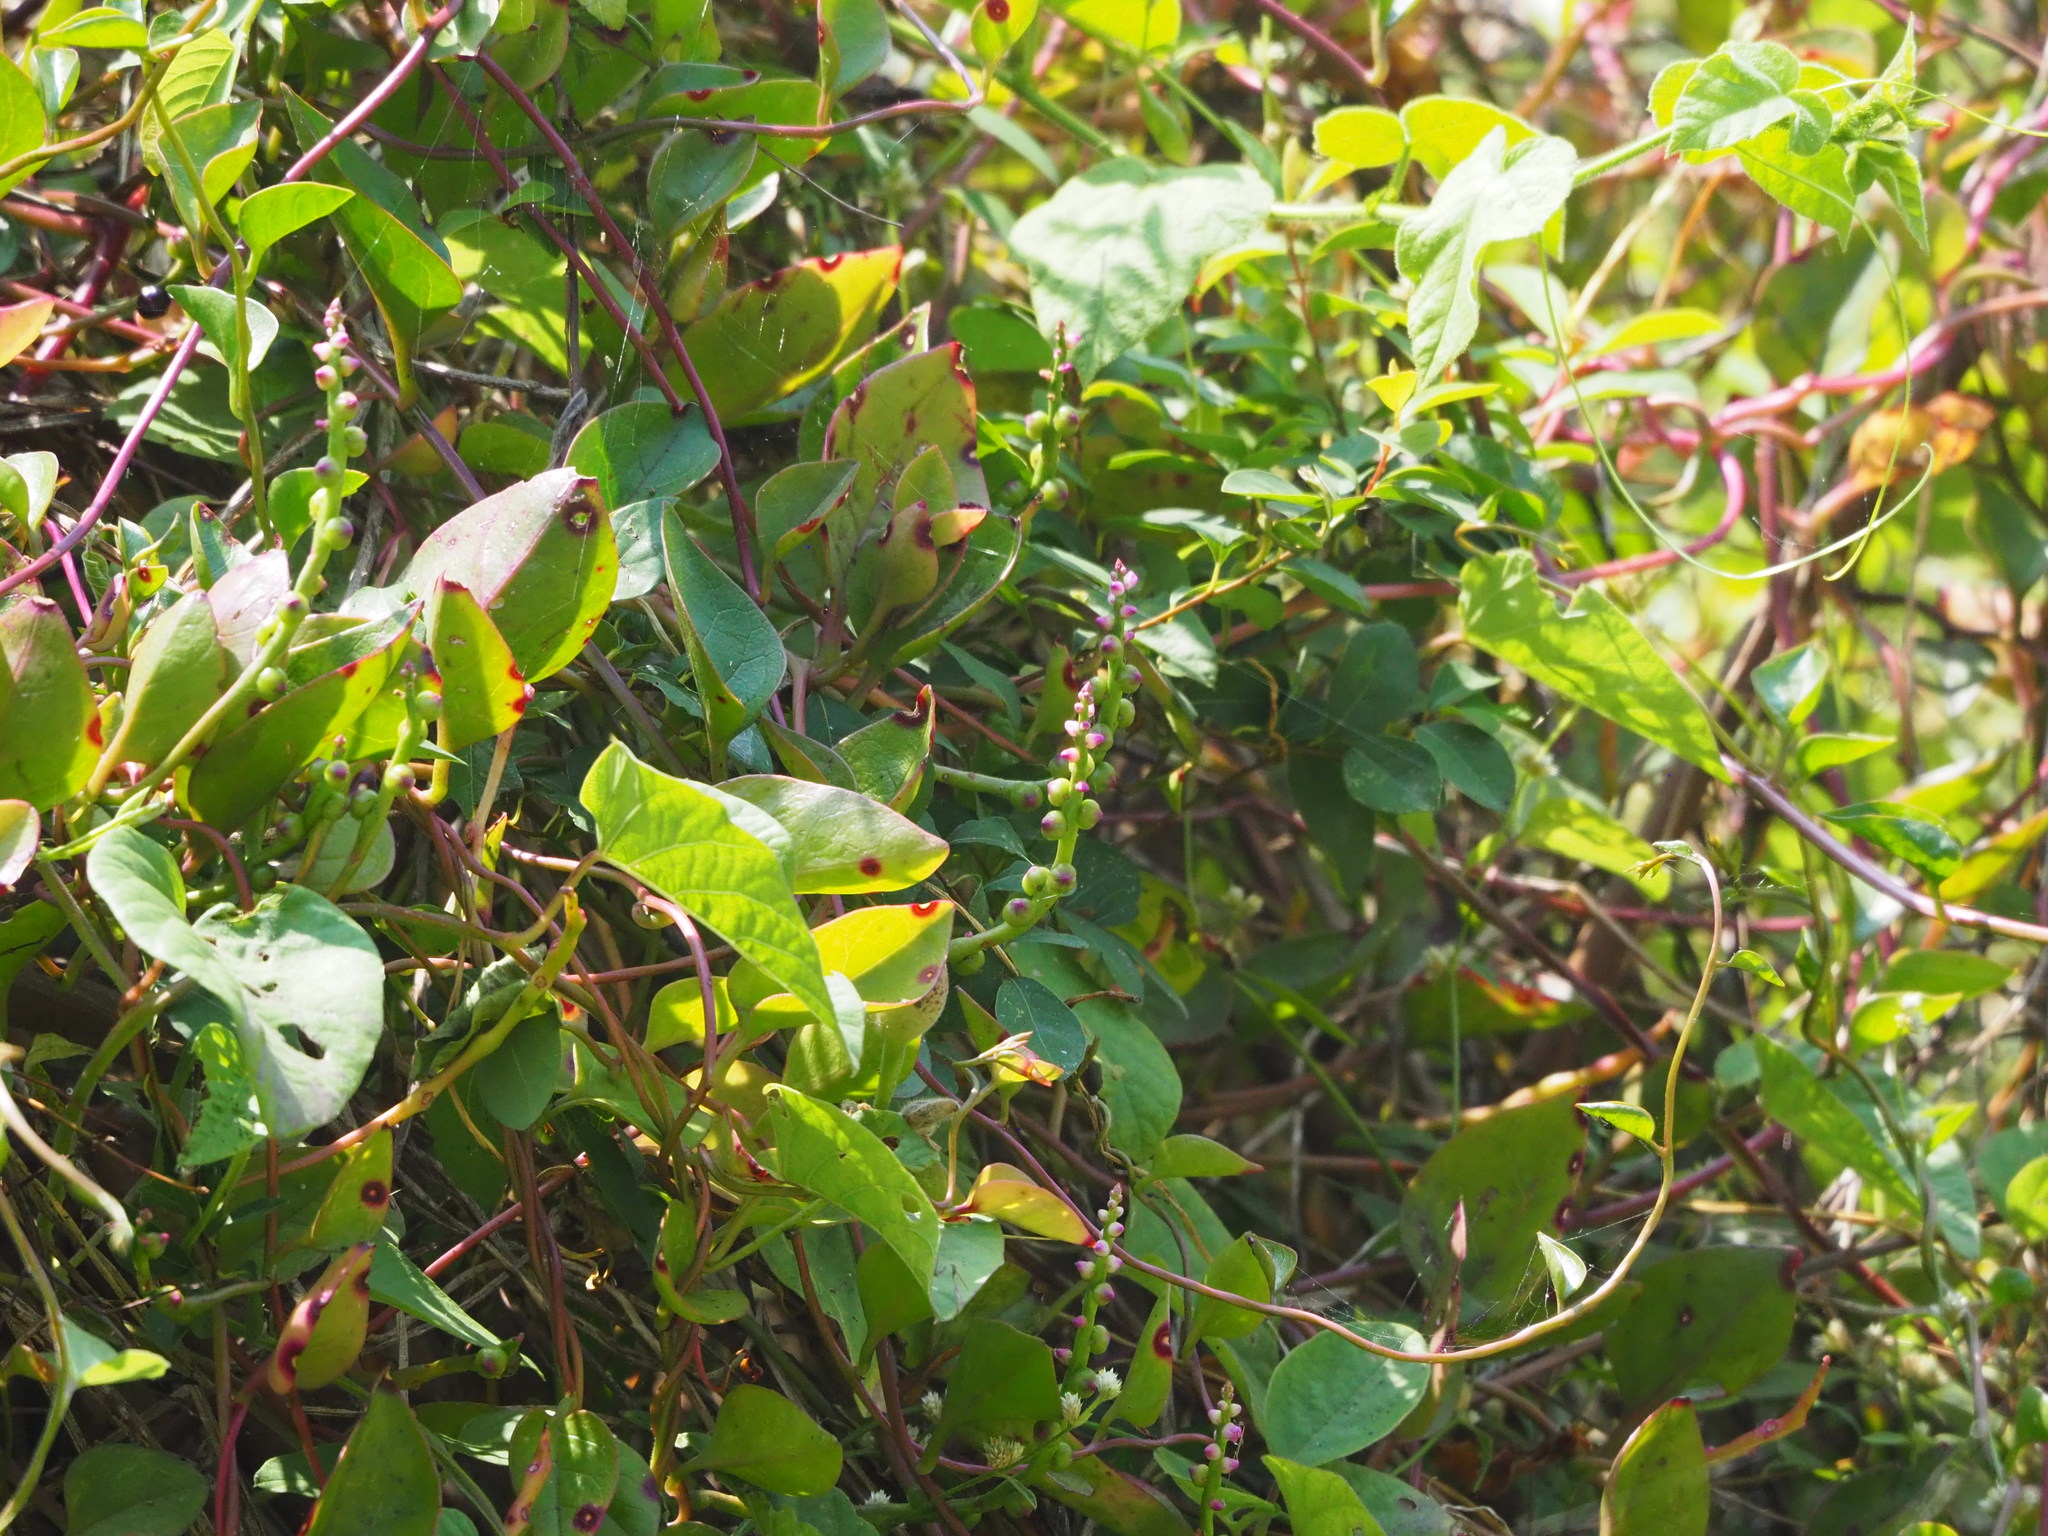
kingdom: Plantae
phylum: Tracheophyta
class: Magnoliopsida
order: Caryophyllales
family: Basellaceae
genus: Basella
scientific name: Basella alba
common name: Indian spinach
